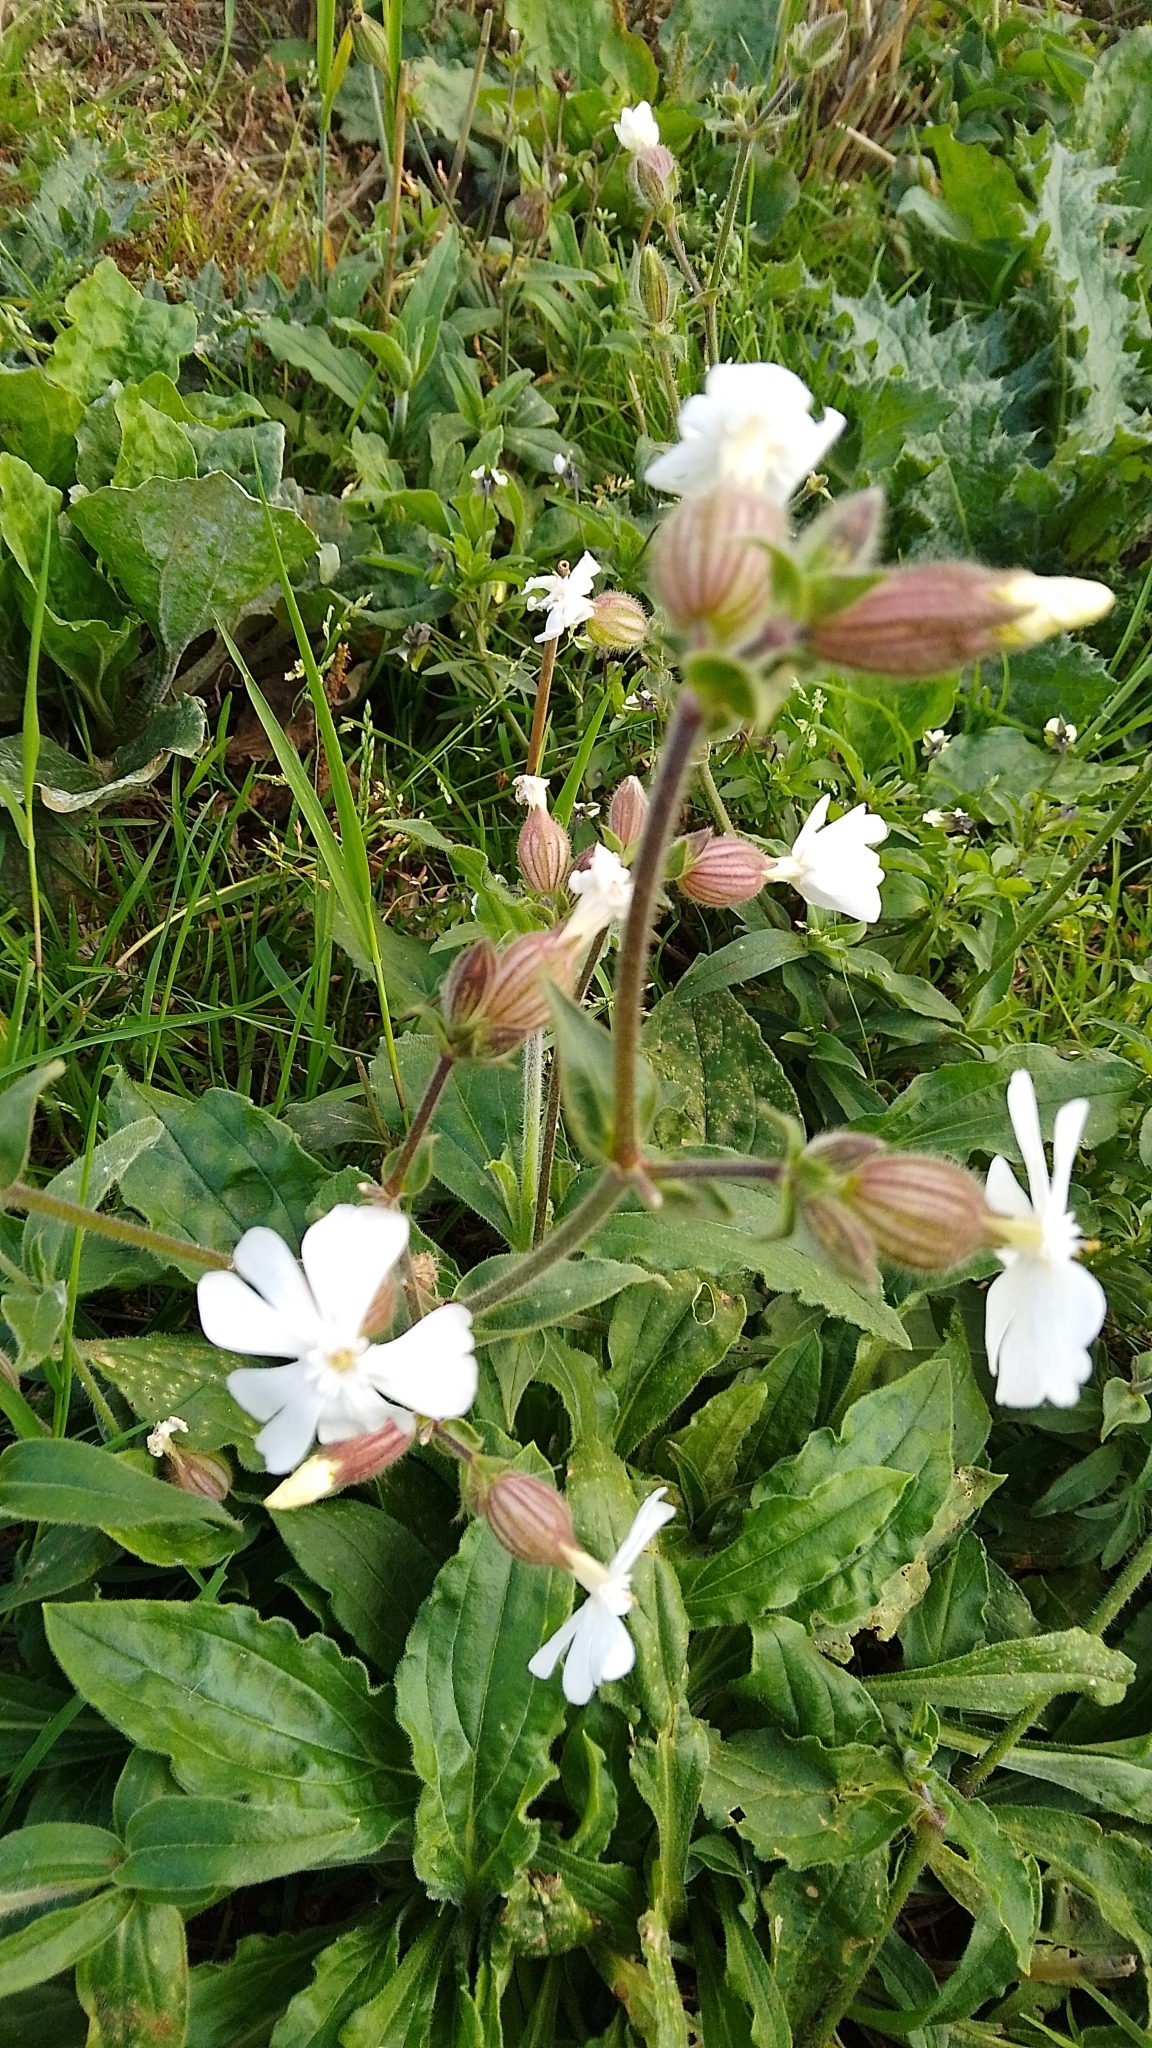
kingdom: Plantae
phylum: Tracheophyta
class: Magnoliopsida
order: Caryophyllales
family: Caryophyllaceae
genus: Silene
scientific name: Silene latifolia
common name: White campion
